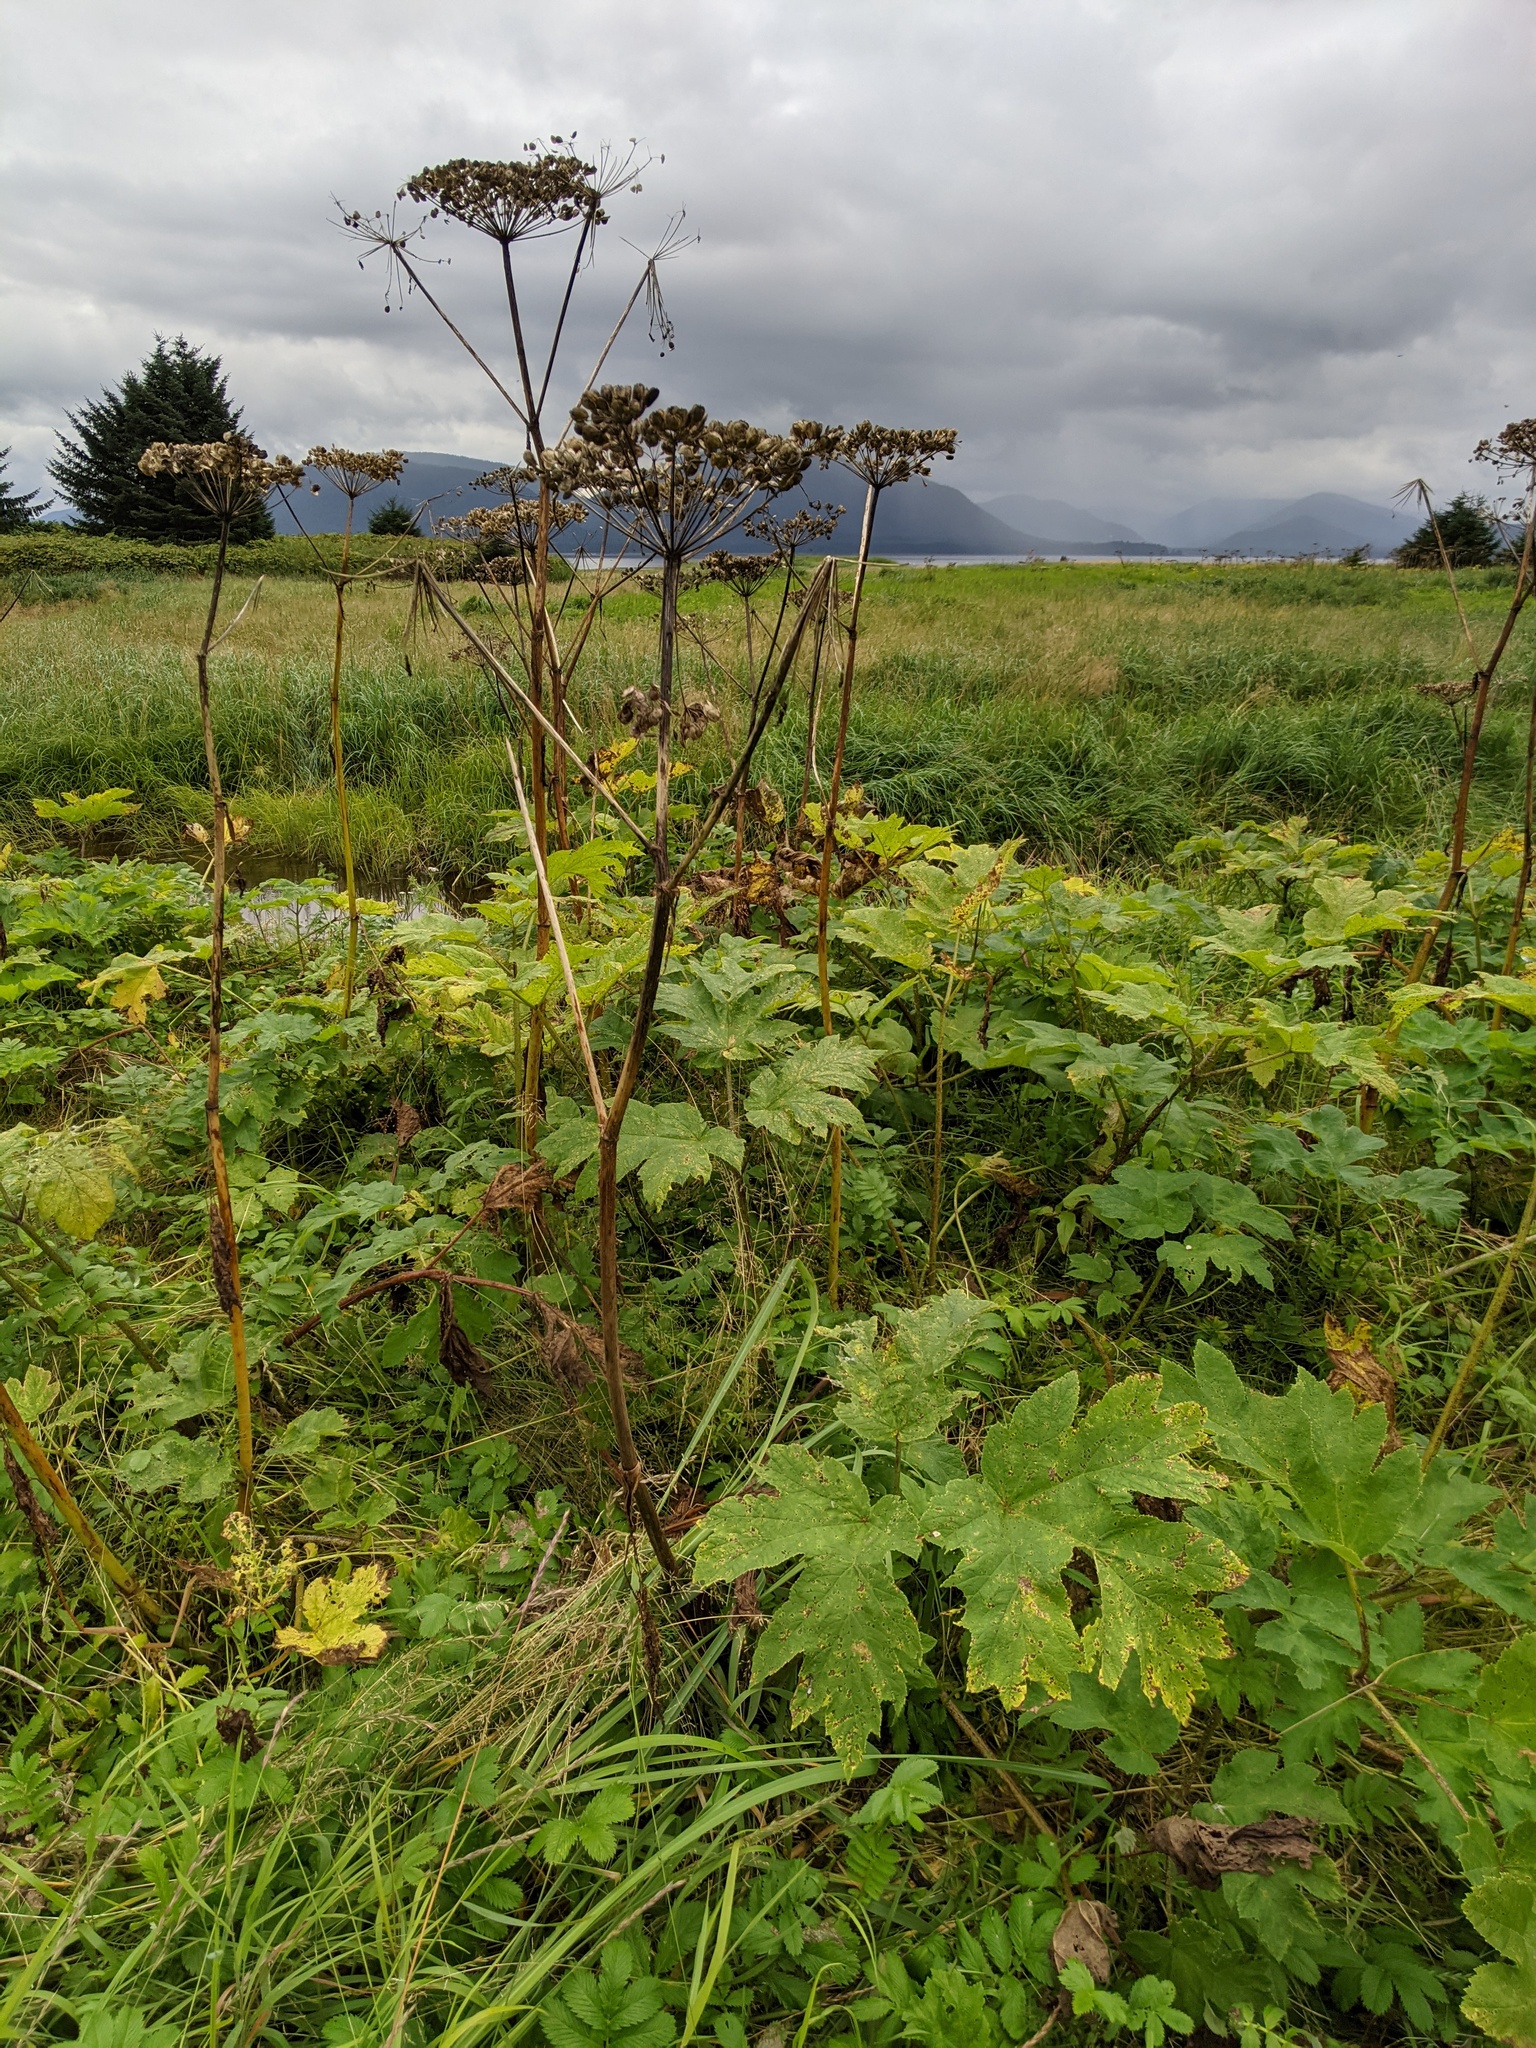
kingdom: Plantae
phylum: Tracheophyta
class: Magnoliopsida
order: Apiales
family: Apiaceae
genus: Heracleum
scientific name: Heracleum maximum
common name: American cow parsnip
